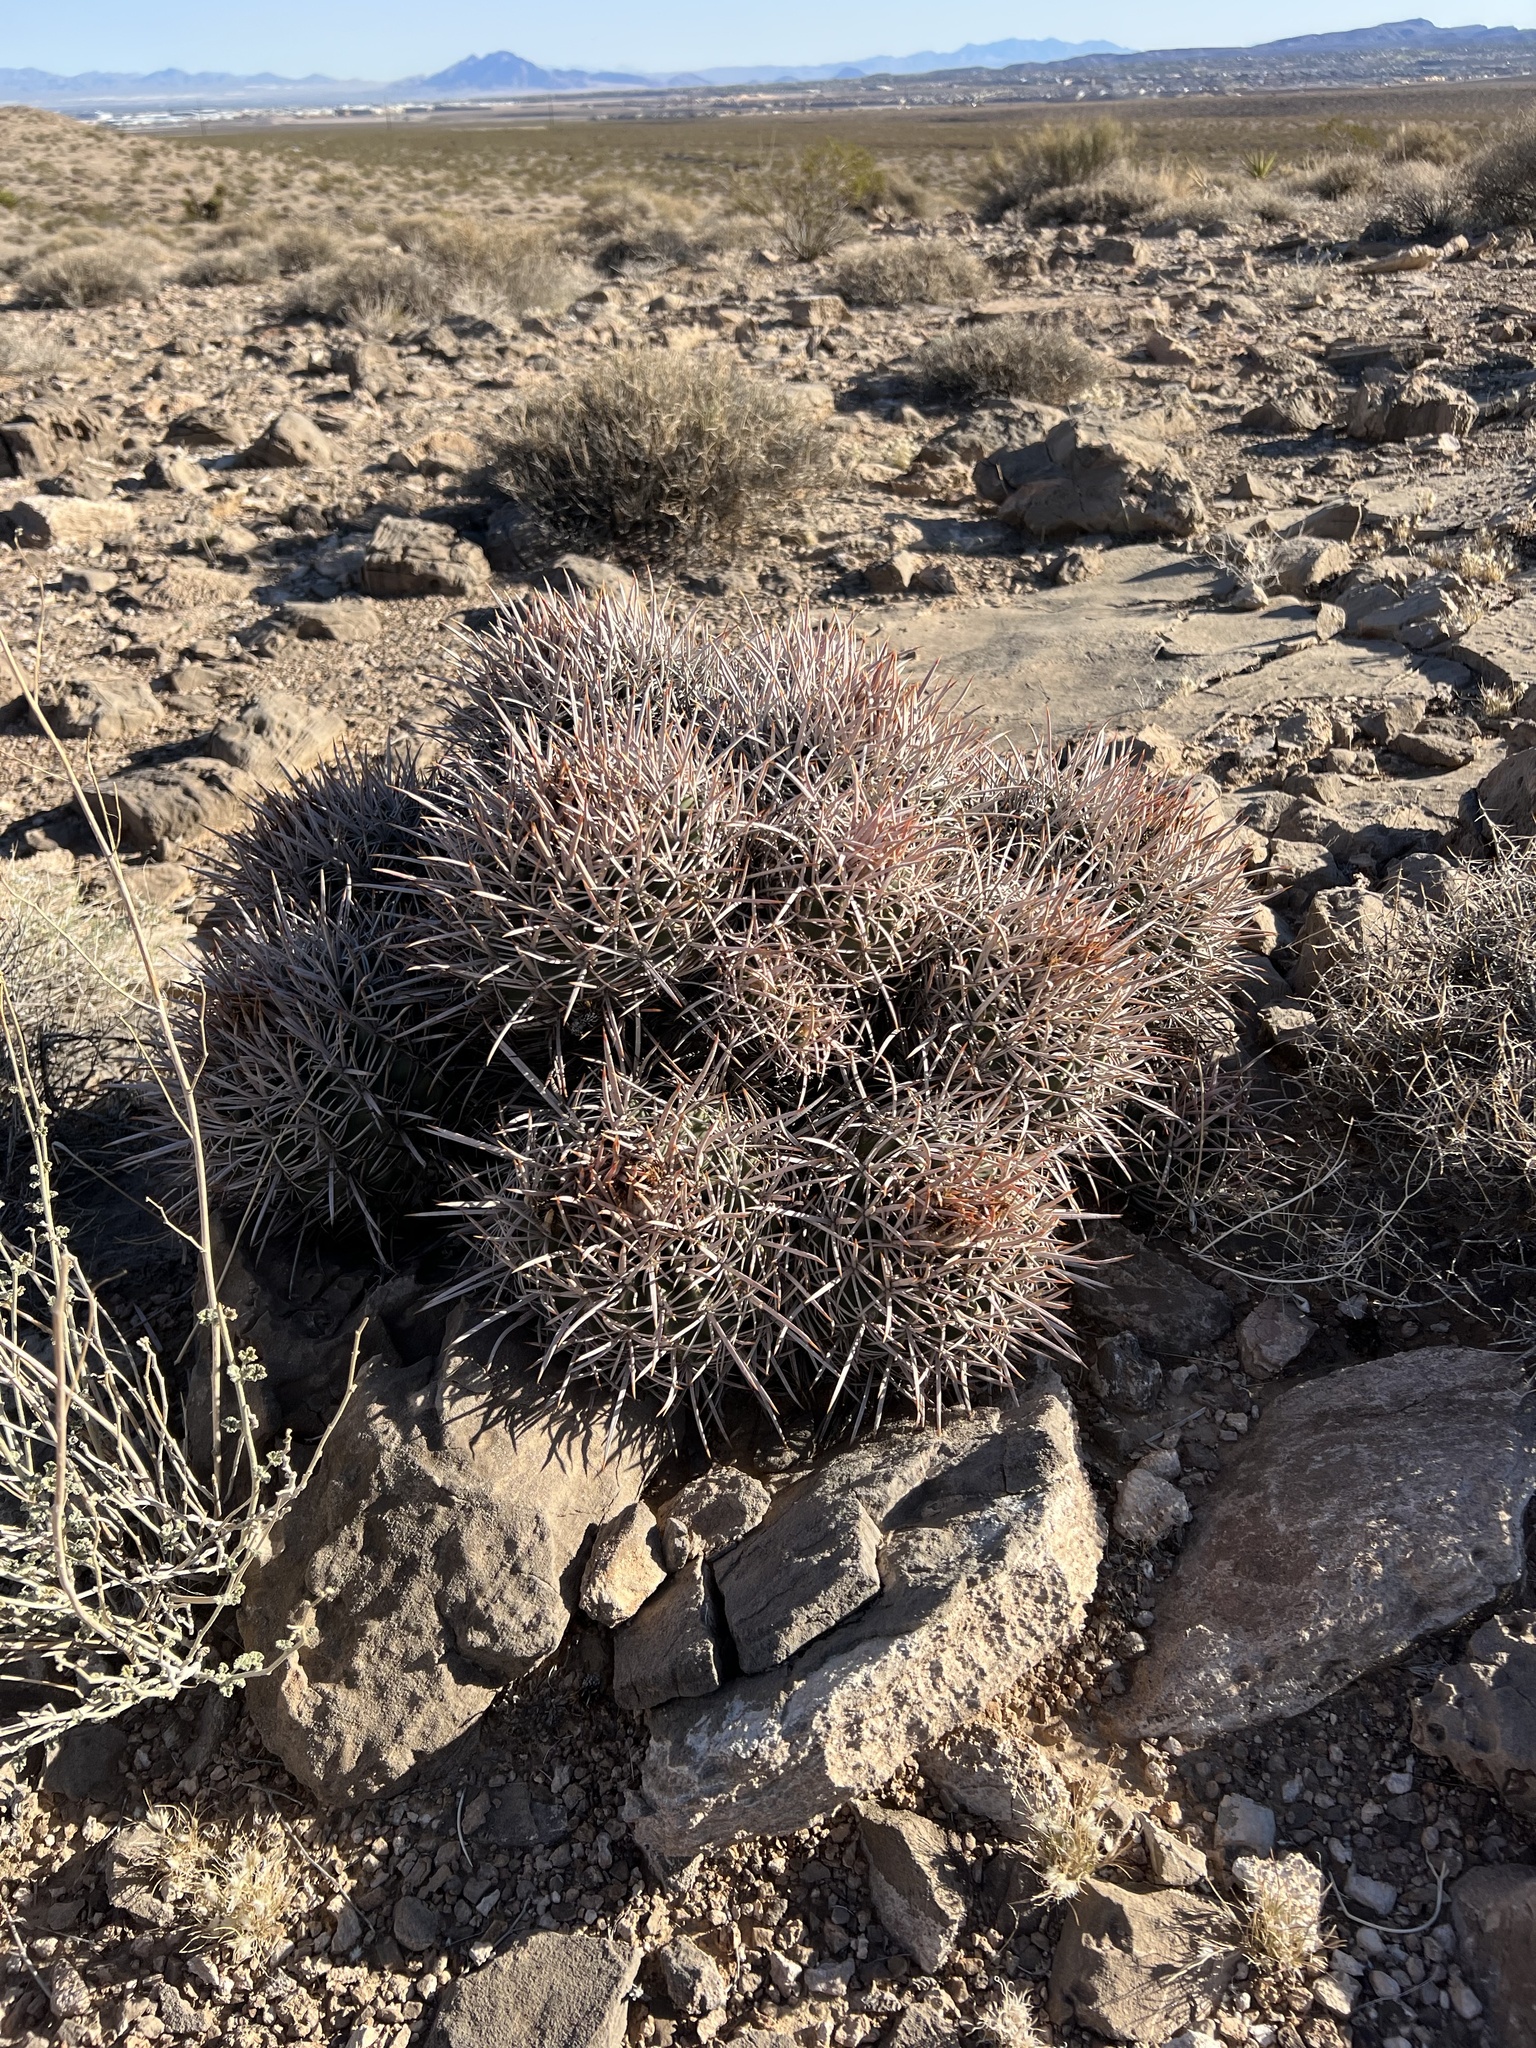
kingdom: Plantae
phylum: Tracheophyta
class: Magnoliopsida
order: Caryophyllales
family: Cactaceae
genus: Echinocactus
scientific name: Echinocactus polycephalus
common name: Cottontop cactus
